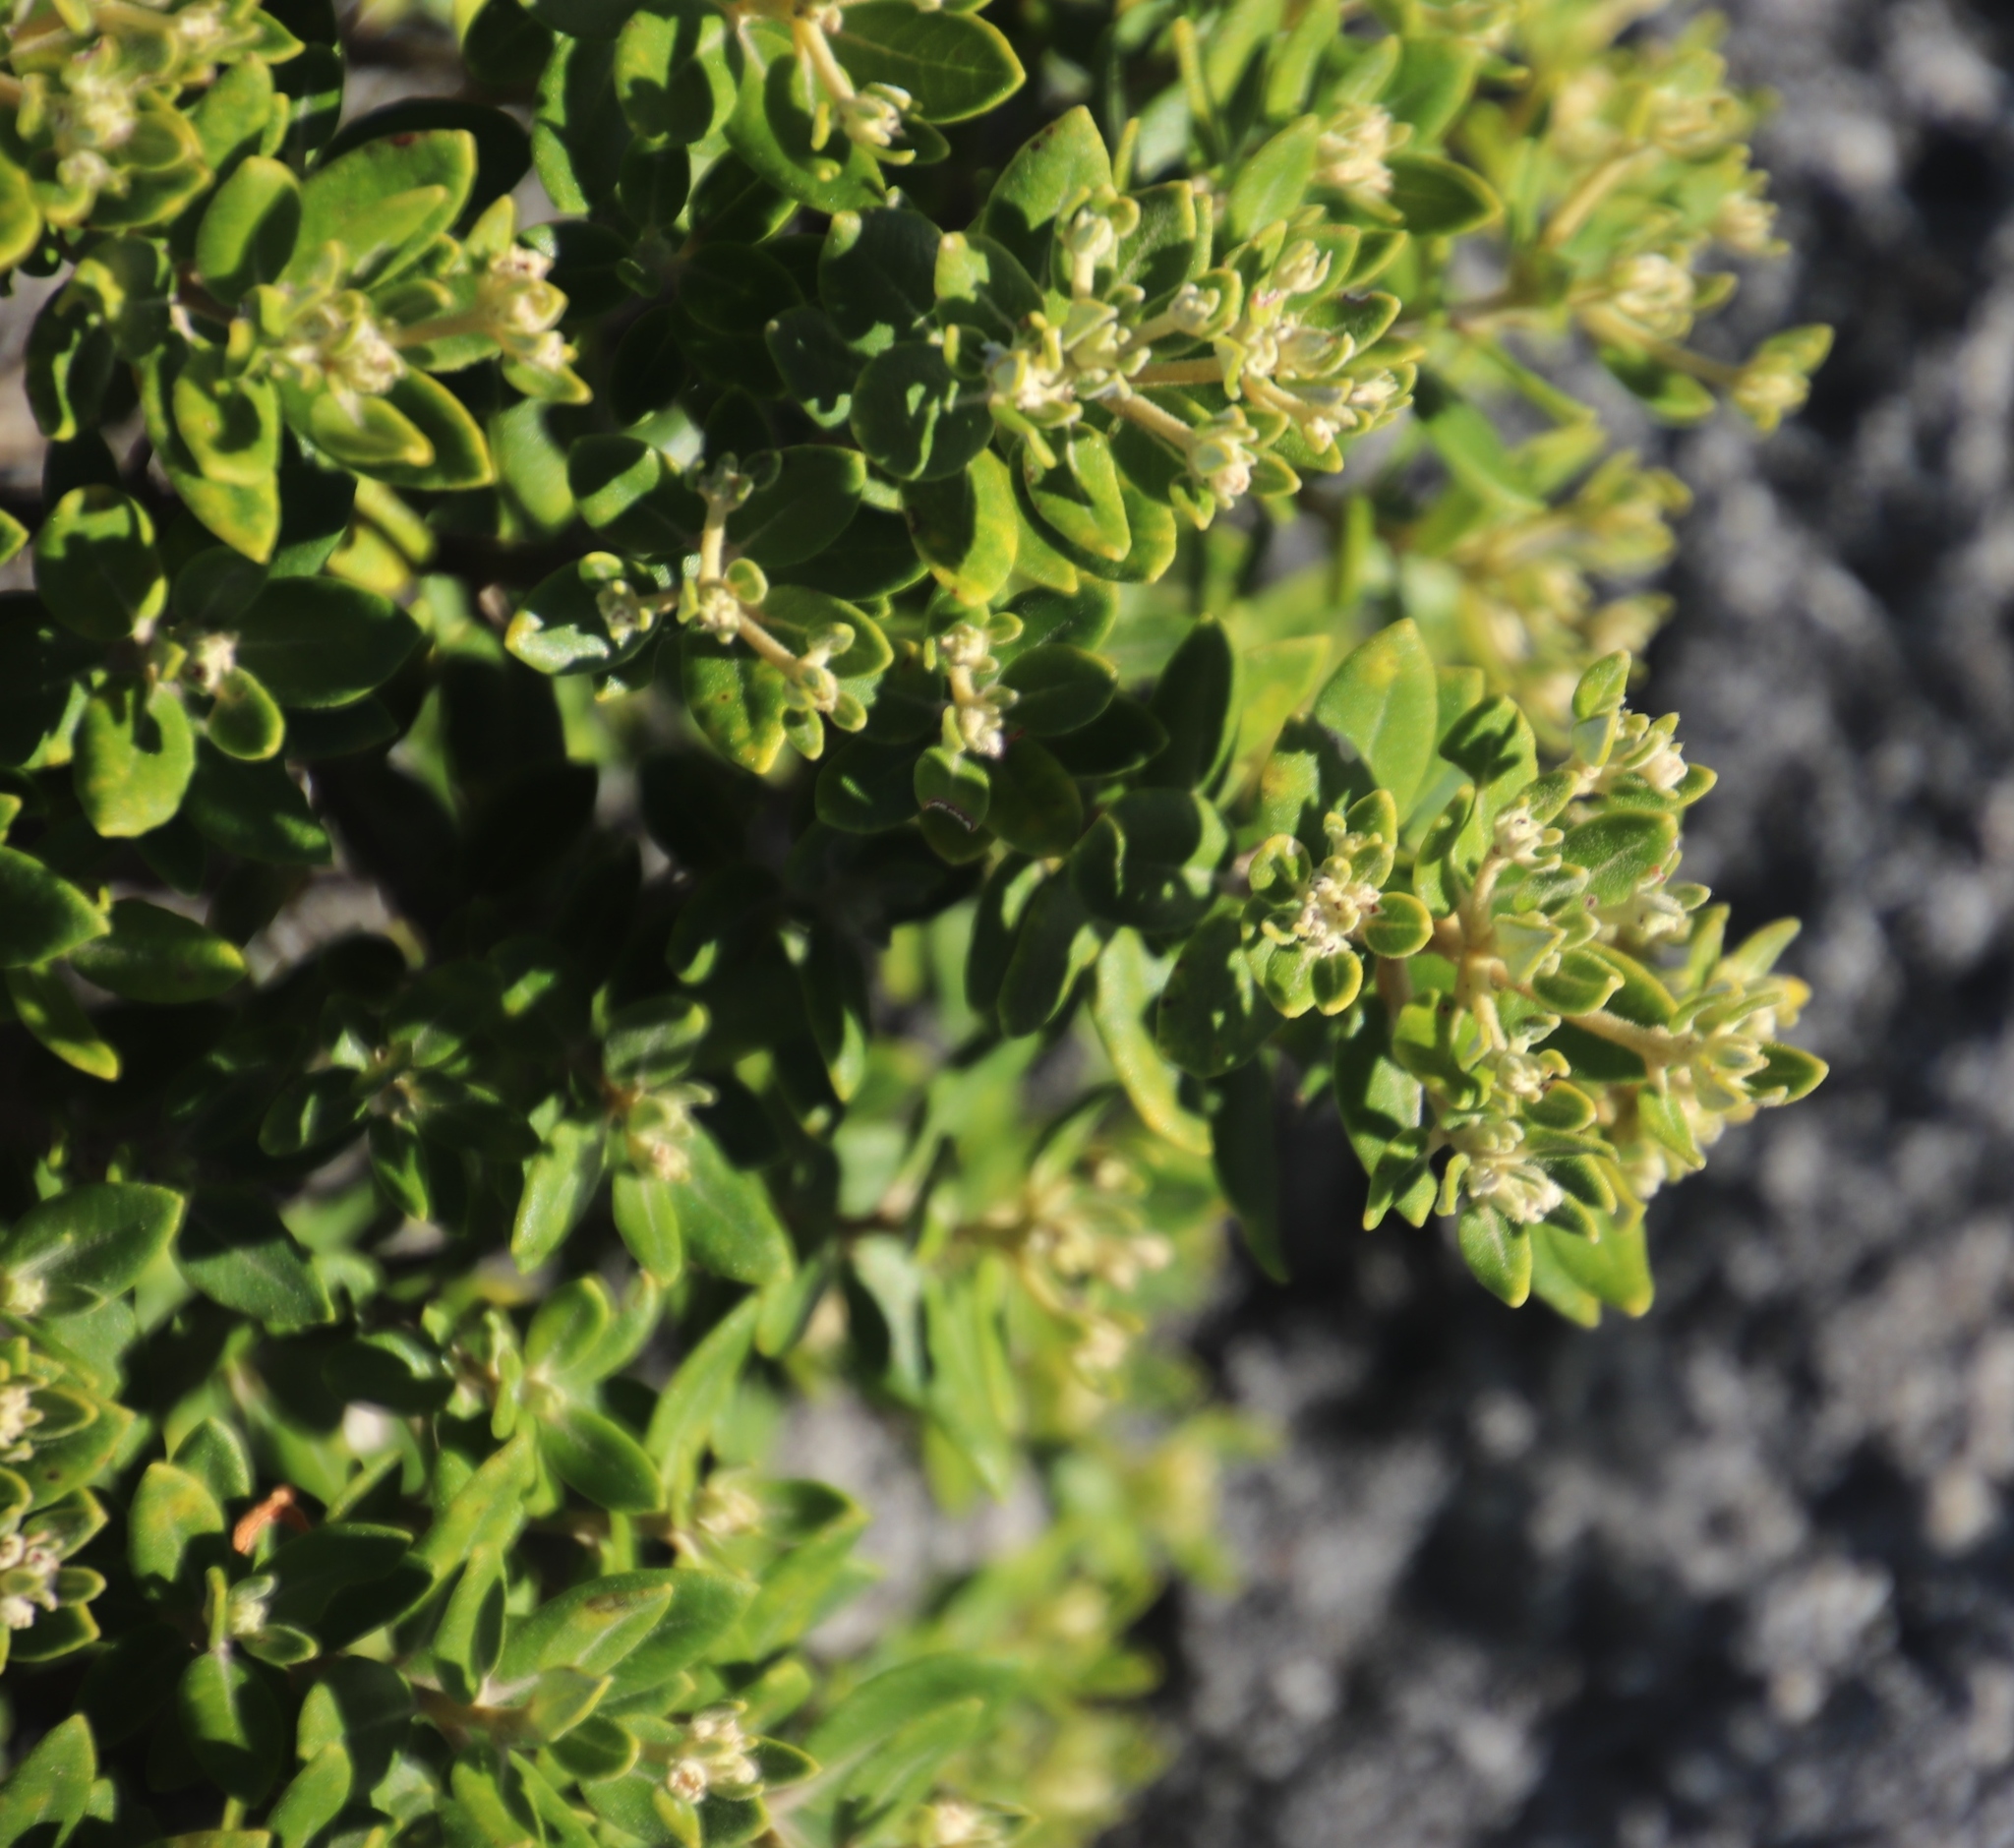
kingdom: Plantae
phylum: Tracheophyta
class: Magnoliopsida
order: Rosales
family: Rhamnaceae
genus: Phylica
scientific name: Phylica buxifolia
